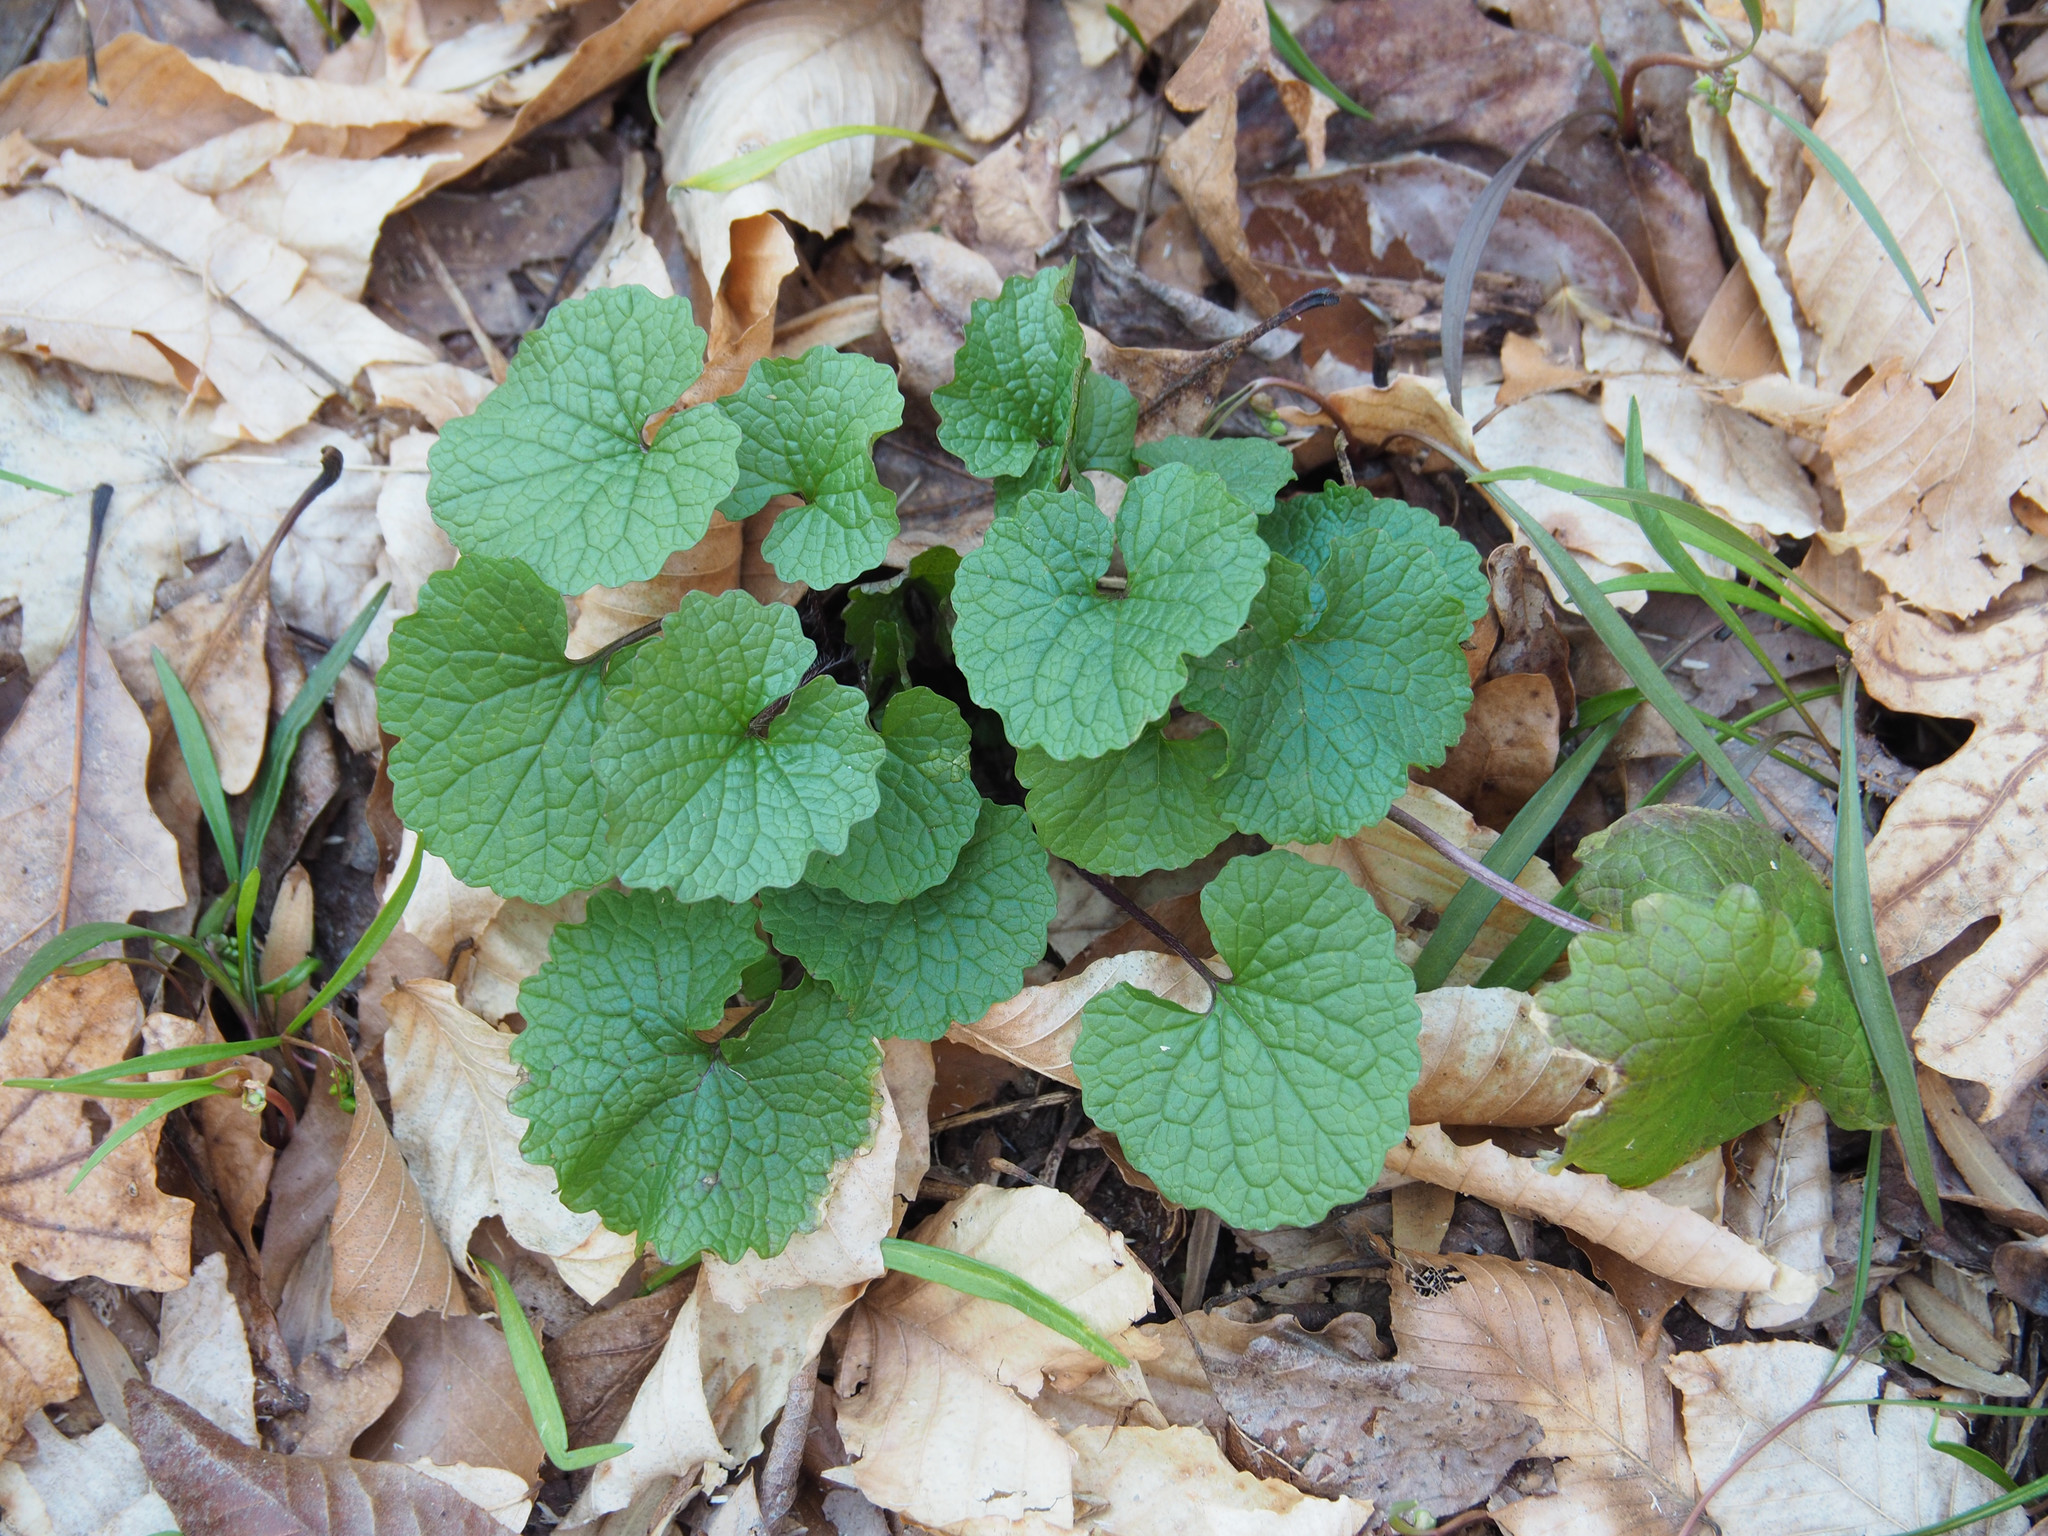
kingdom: Plantae
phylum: Tracheophyta
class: Magnoliopsida
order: Brassicales
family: Brassicaceae
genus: Alliaria
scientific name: Alliaria petiolata
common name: Garlic mustard
